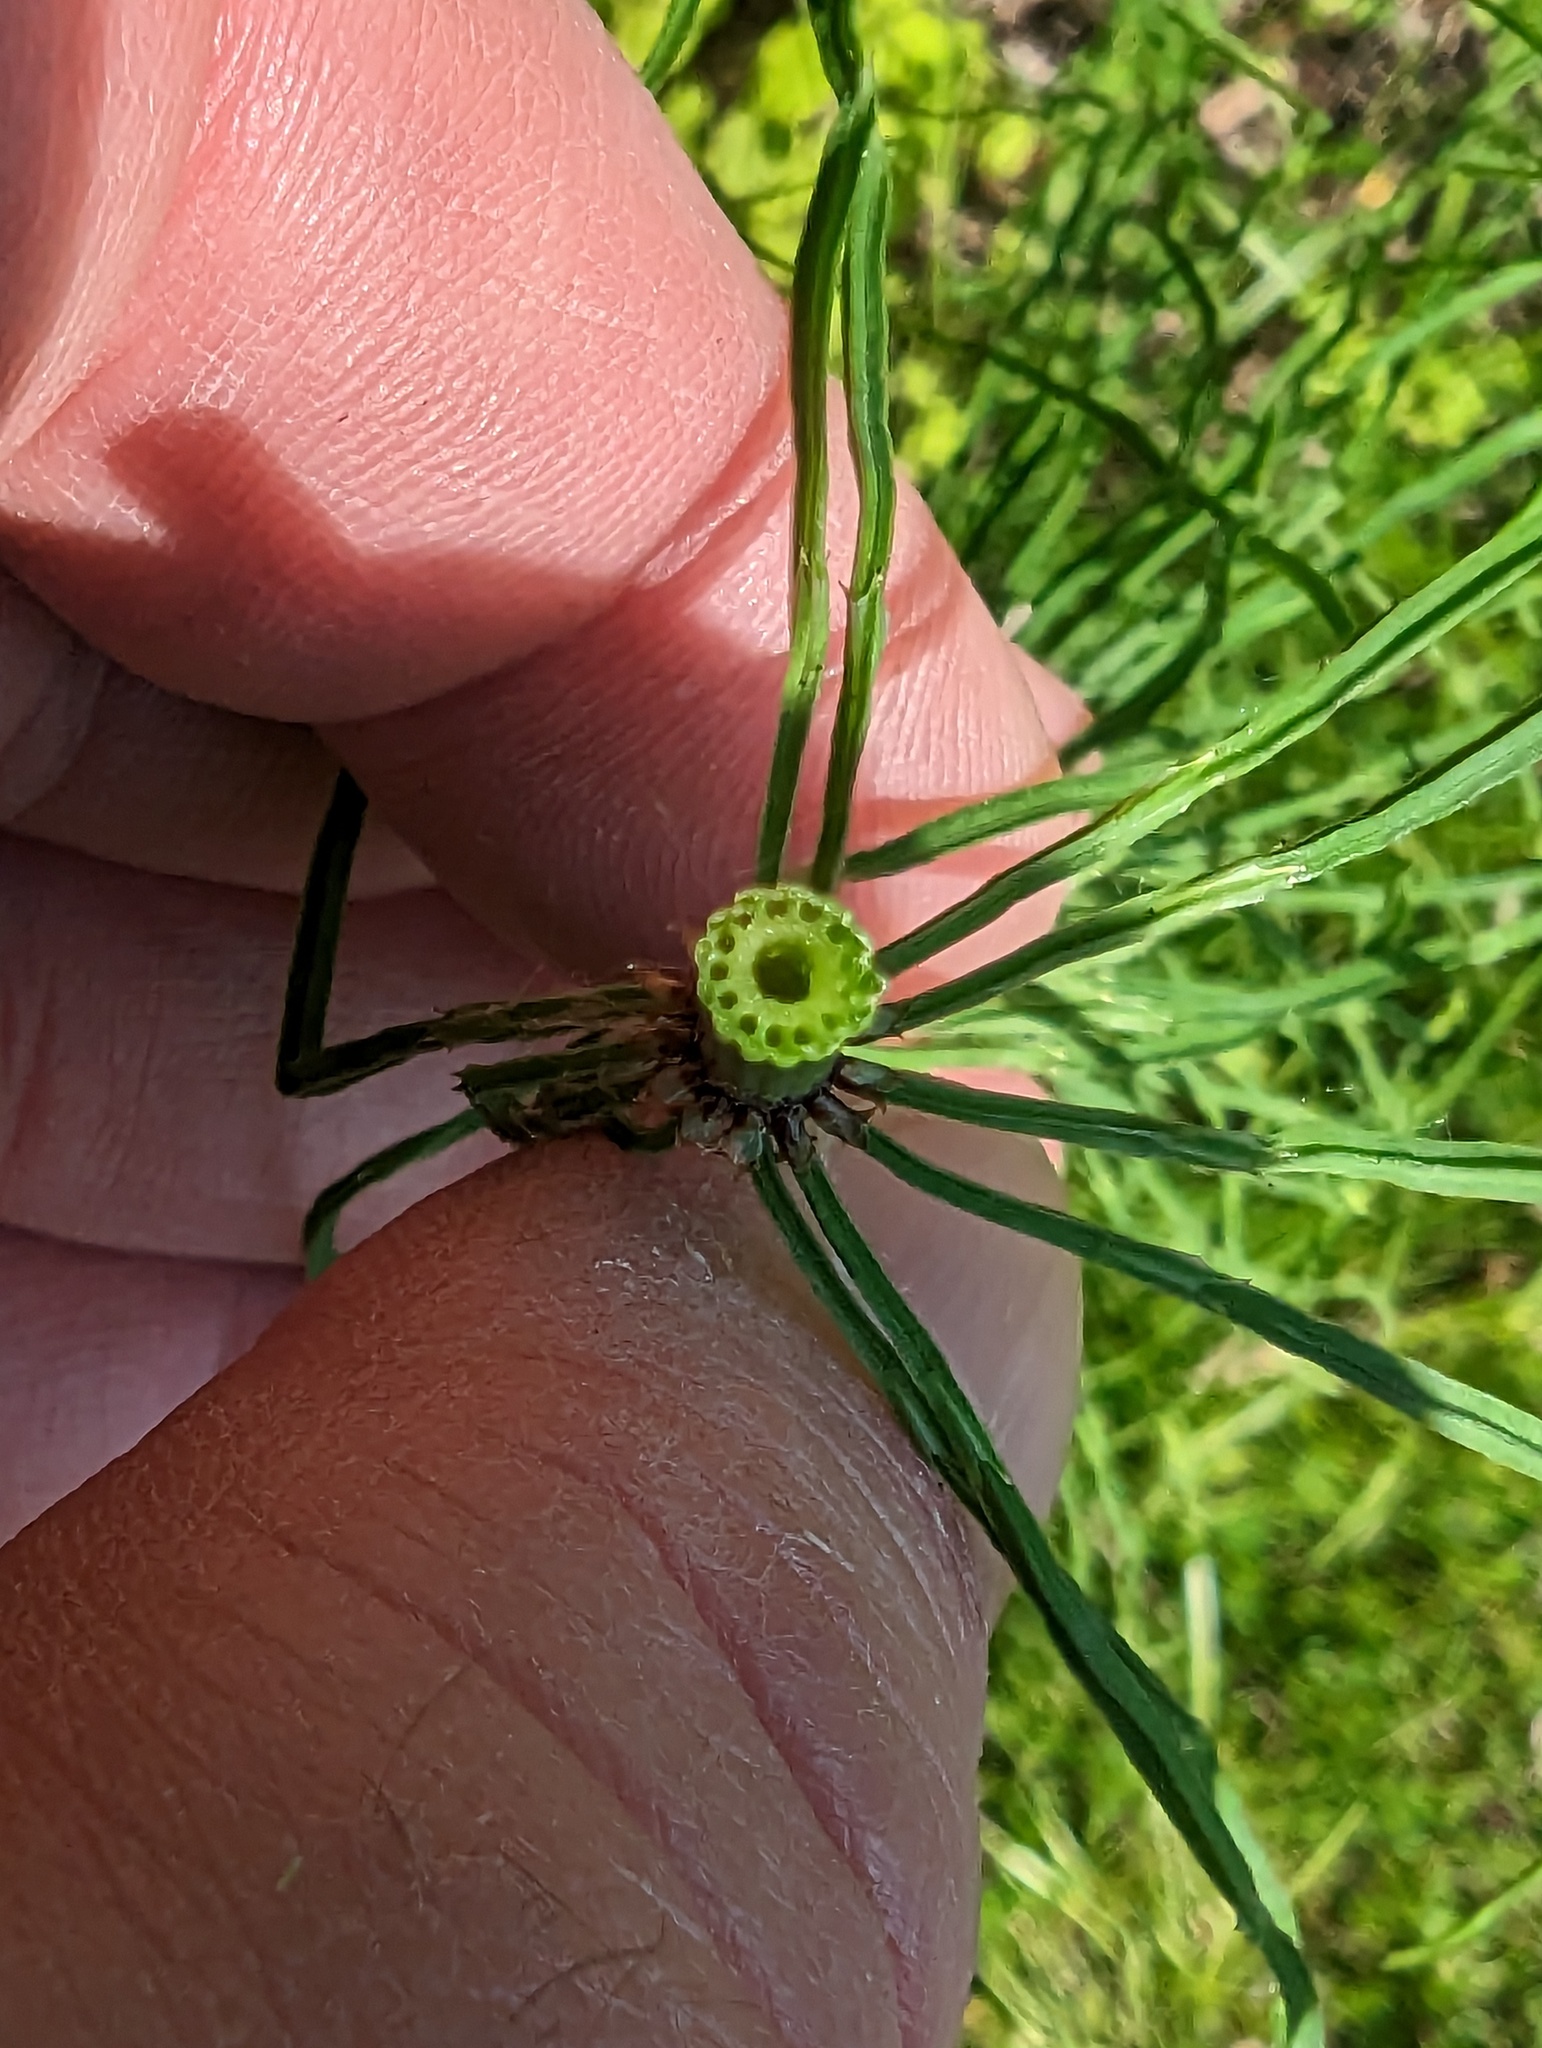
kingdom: Plantae
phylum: Tracheophyta
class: Polypodiopsida
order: Equisetales
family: Equisetaceae
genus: Equisetum
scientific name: Equisetum arvense
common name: Field horsetail
